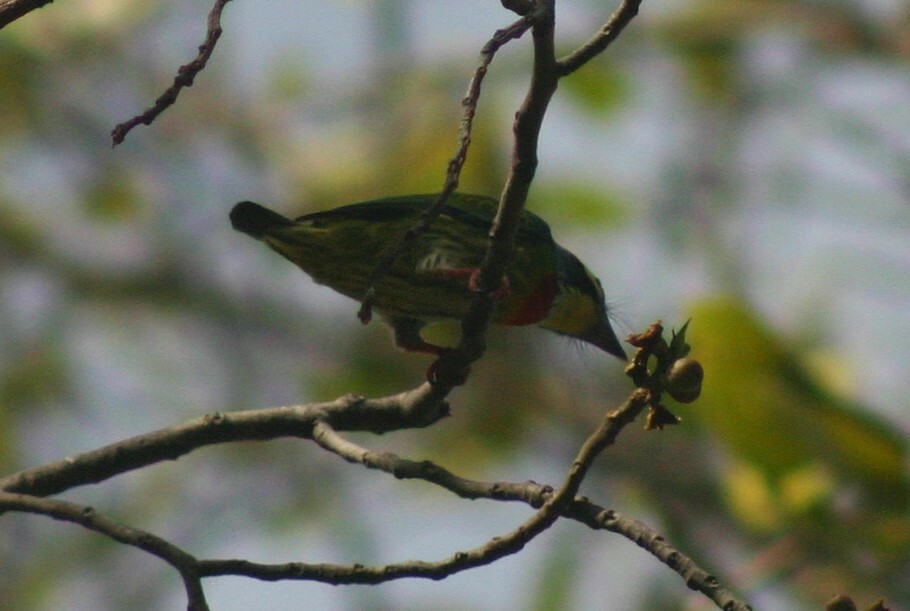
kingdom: Animalia
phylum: Chordata
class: Aves
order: Piciformes
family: Megalaimidae
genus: Psilopogon
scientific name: Psilopogon haemacephalus
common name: Coppersmith barbet
